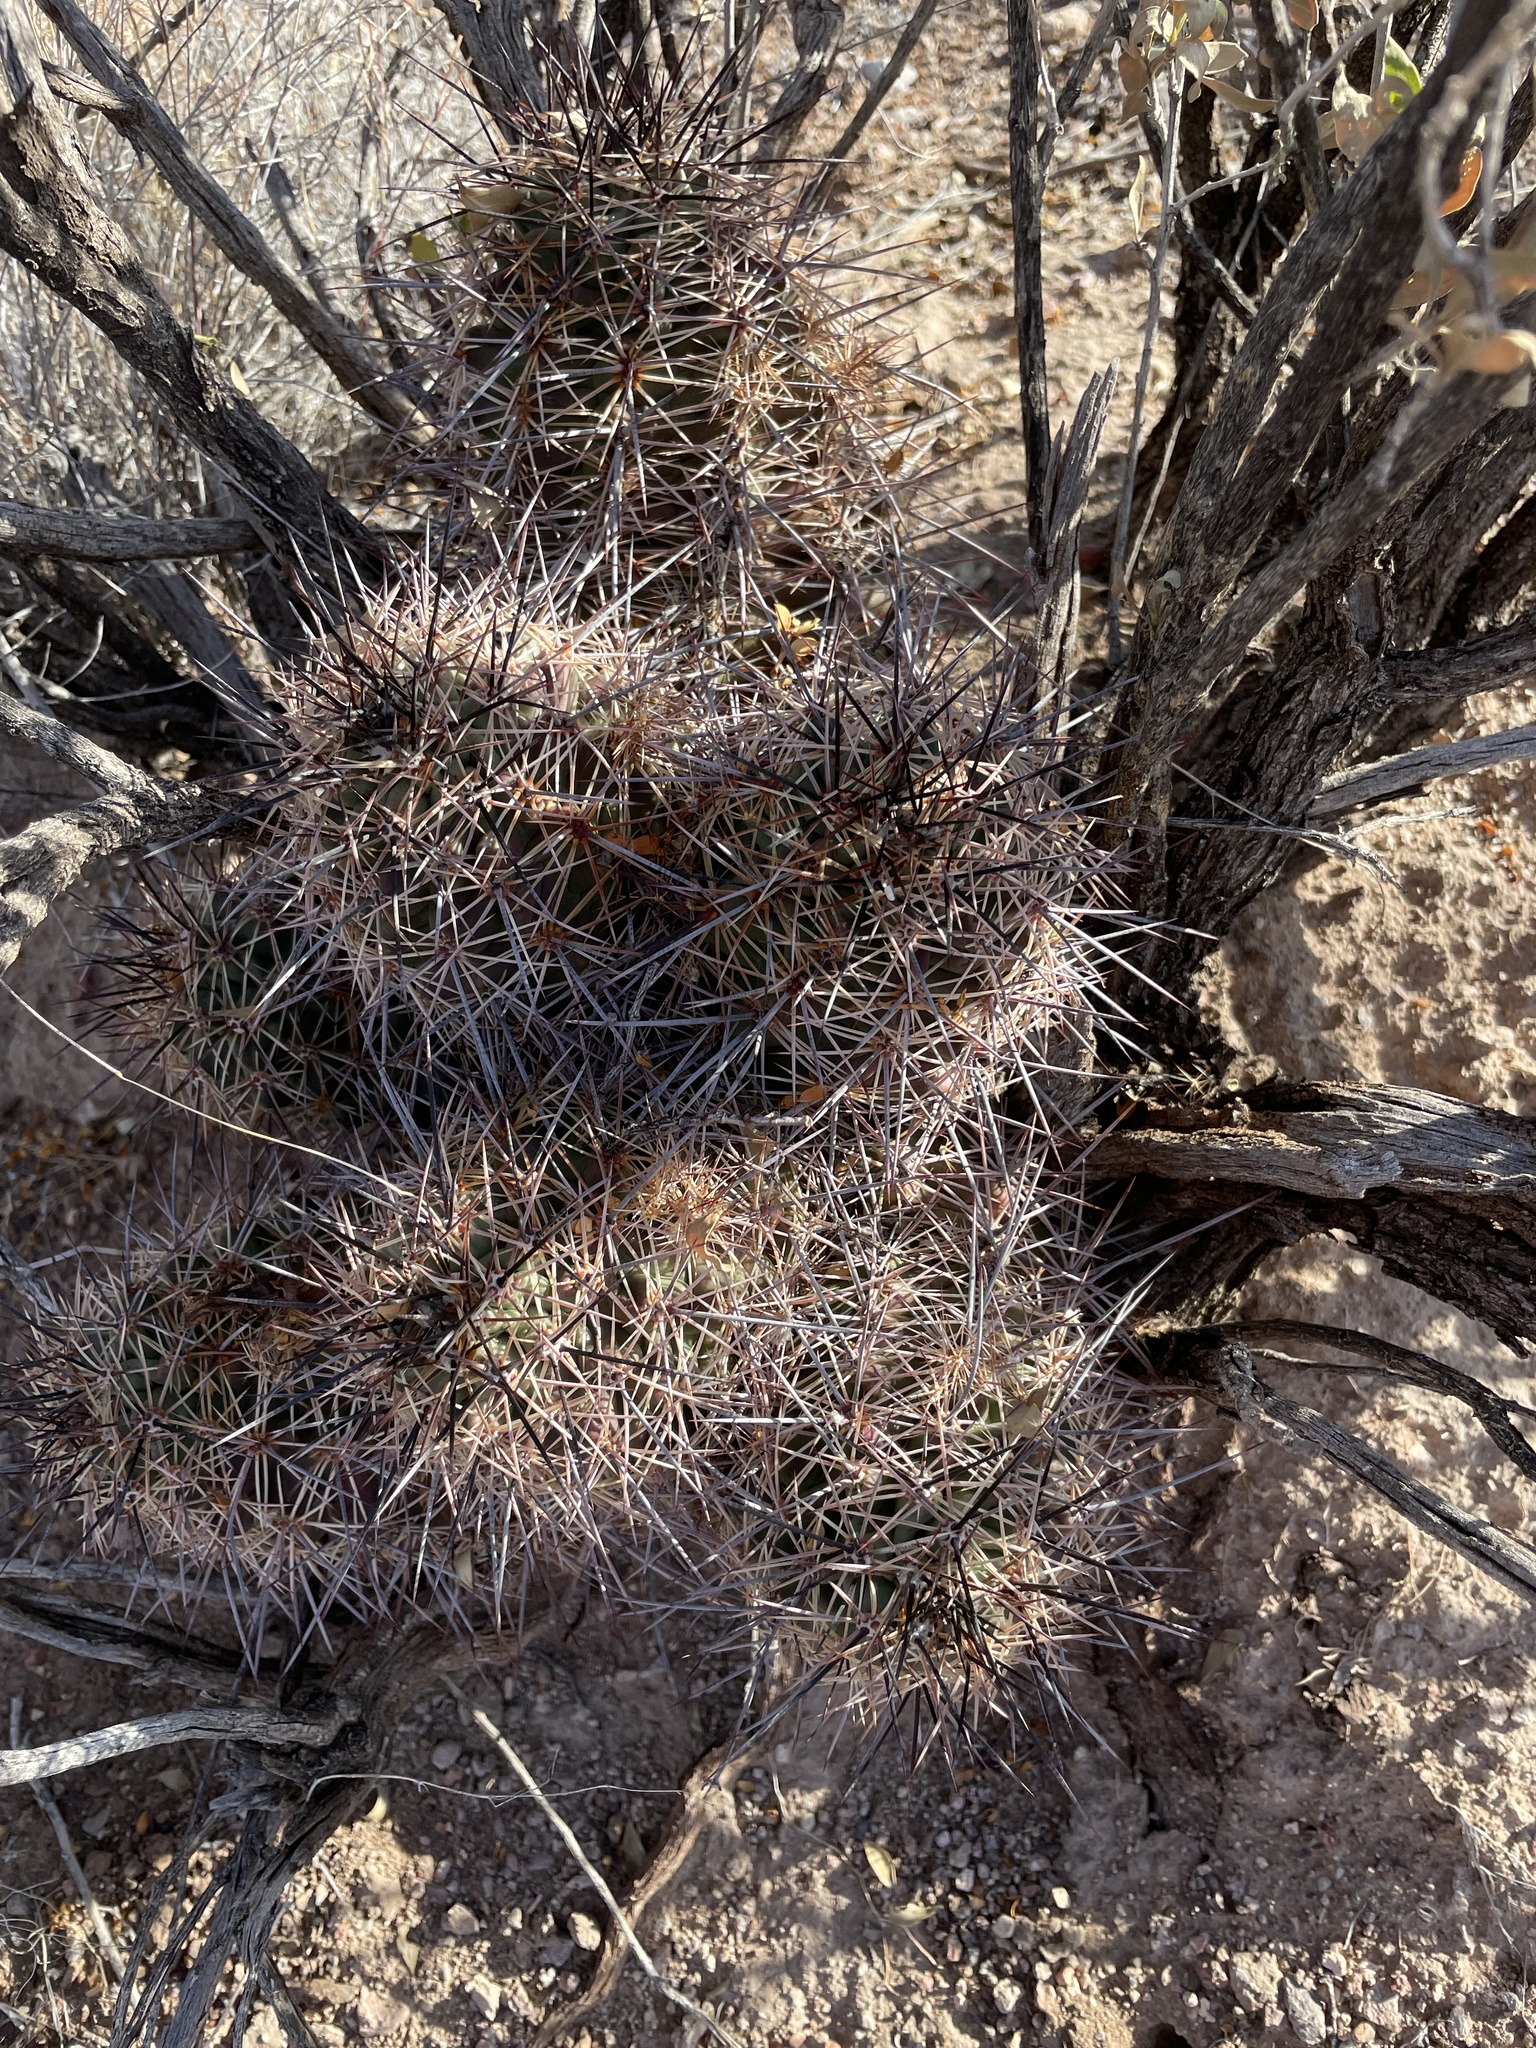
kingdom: Plantae
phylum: Tracheophyta
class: Magnoliopsida
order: Caryophyllales
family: Cactaceae
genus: Echinocereus
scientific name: Echinocereus coccineus
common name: Scarlet hedgehog cactus
